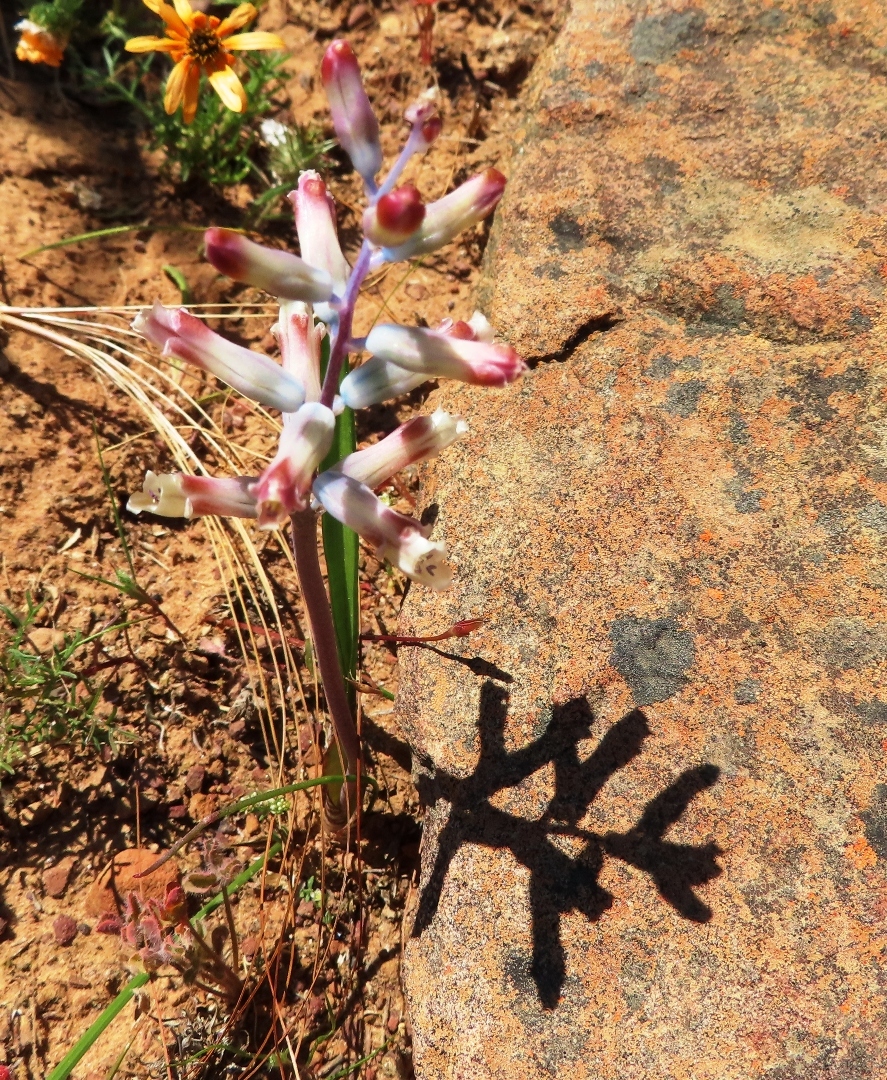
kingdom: Plantae
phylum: Tracheophyta
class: Liliopsida
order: Asparagales
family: Asparagaceae
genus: Lachenalia
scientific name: Lachenalia unifolia
